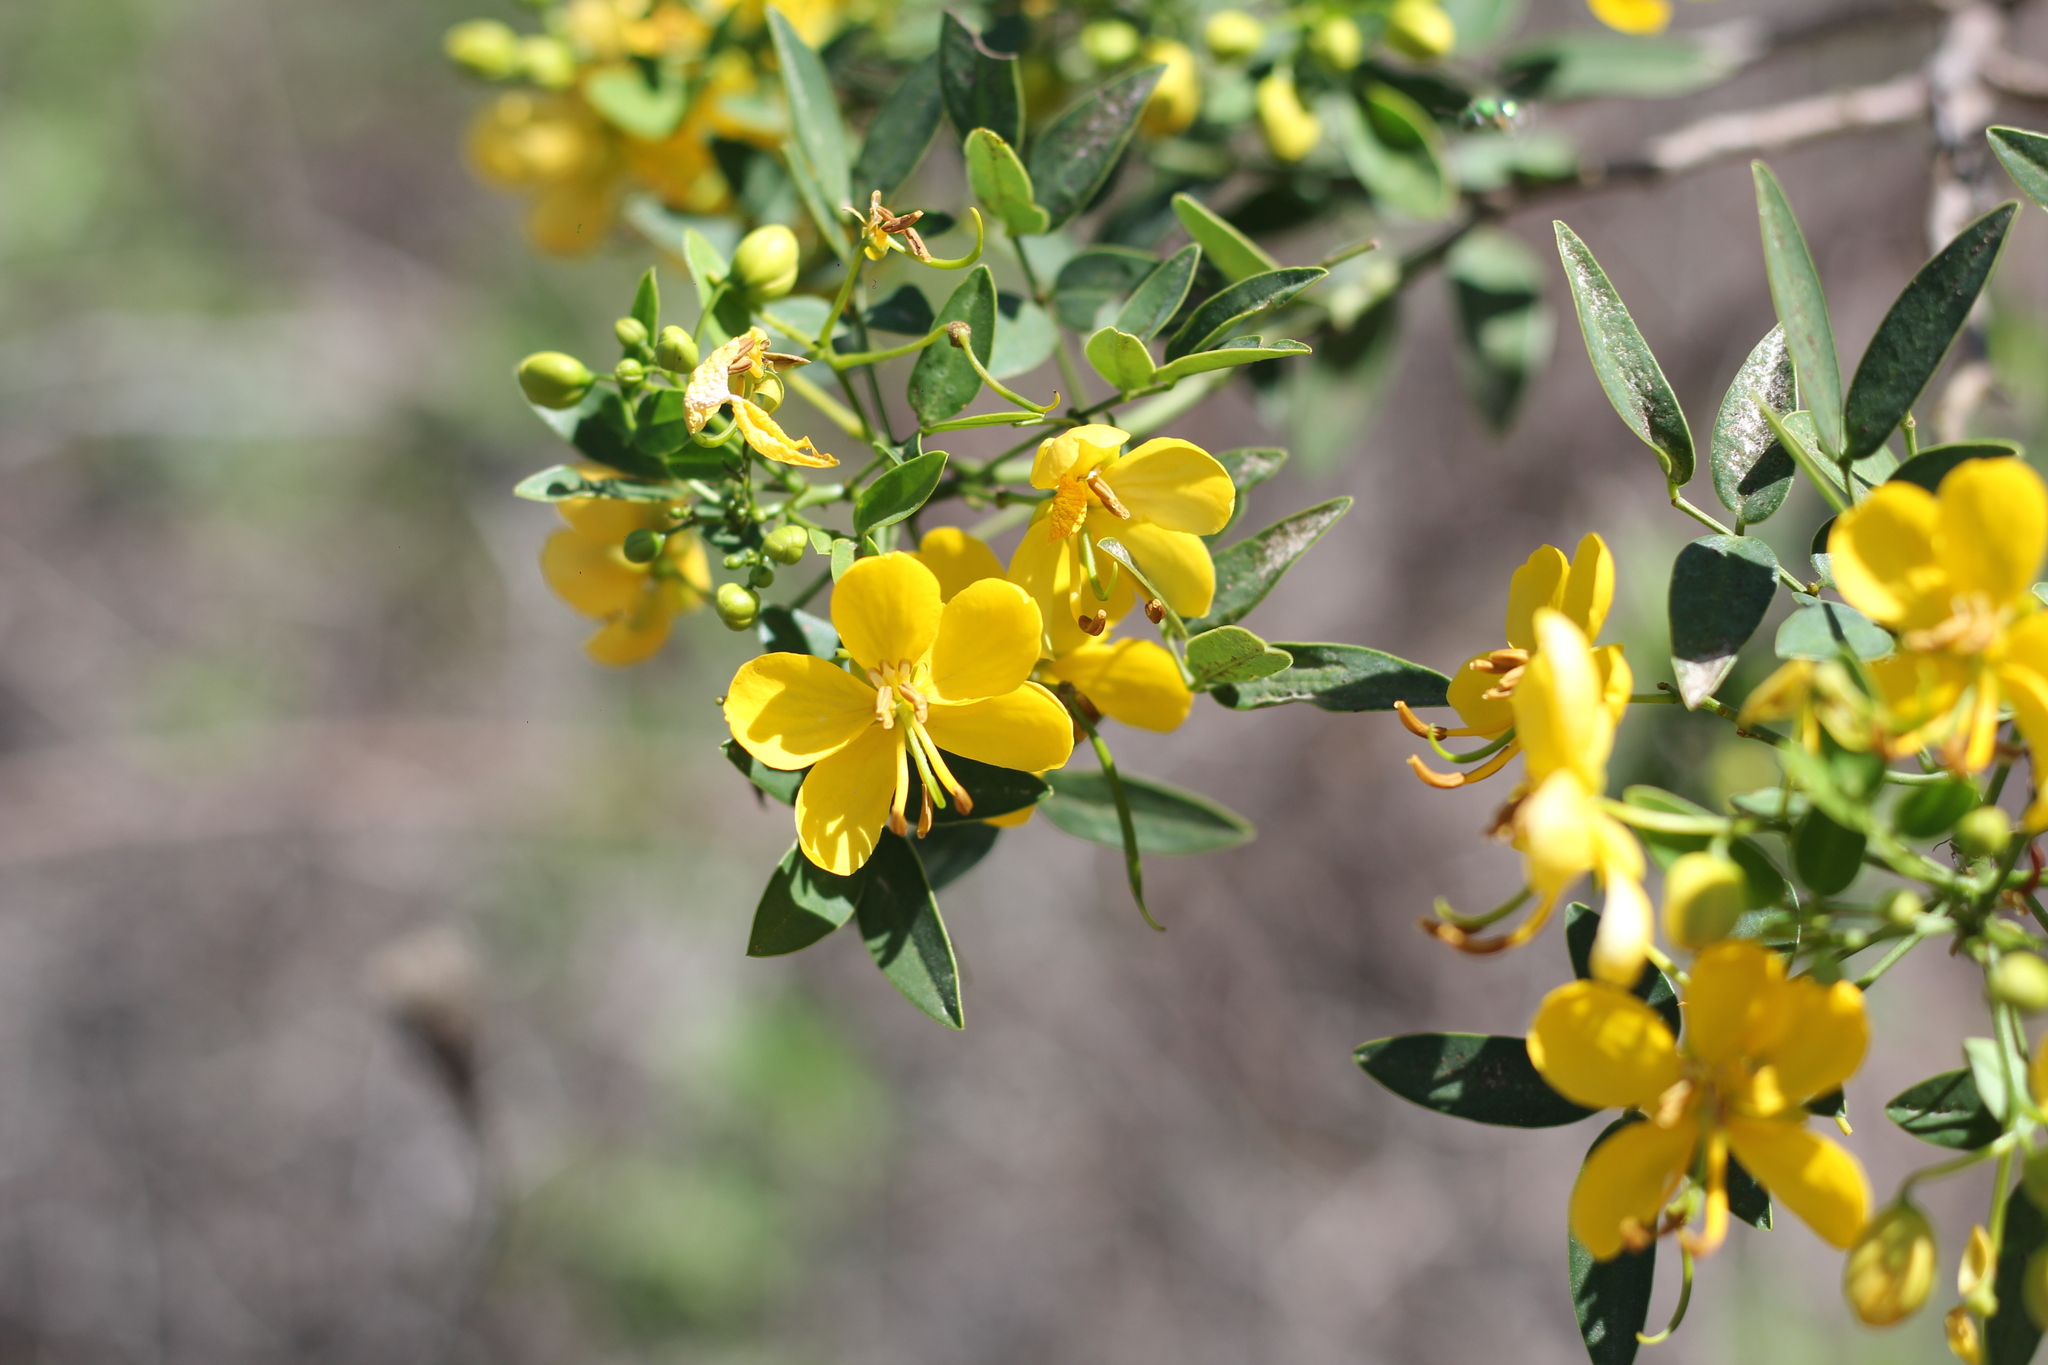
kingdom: Plantae
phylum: Tracheophyta
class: Magnoliopsida
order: Fabales
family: Fabaceae
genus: Senna
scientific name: Senna corymbosa
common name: Argentine senna
